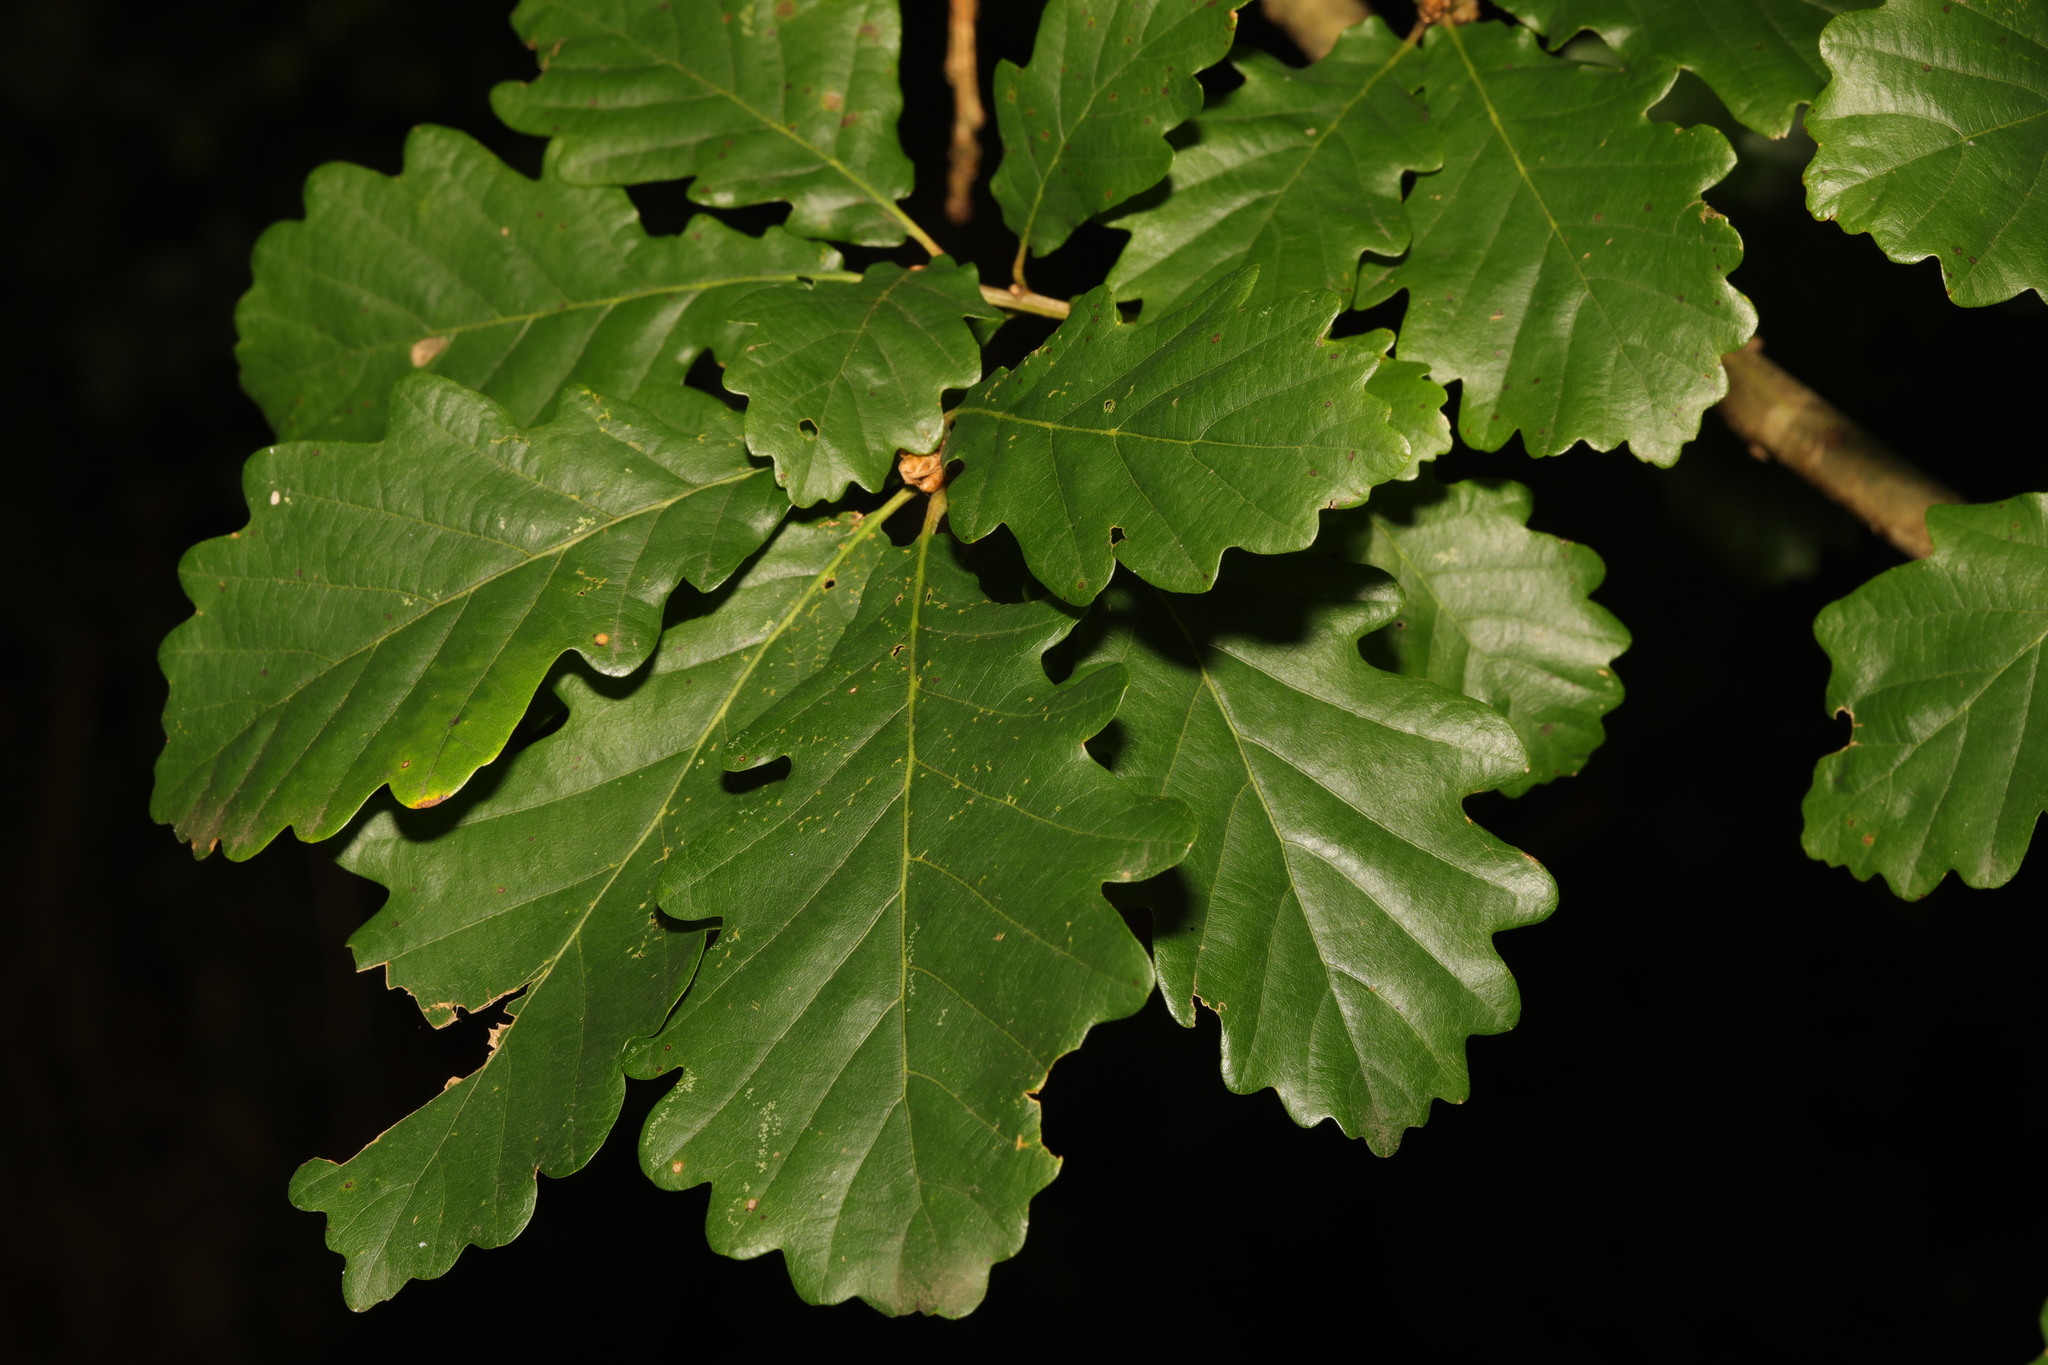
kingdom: Plantae
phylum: Tracheophyta
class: Magnoliopsida
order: Fagales
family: Fagaceae
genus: Quercus
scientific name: Quercus petraea
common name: Sessile oak
